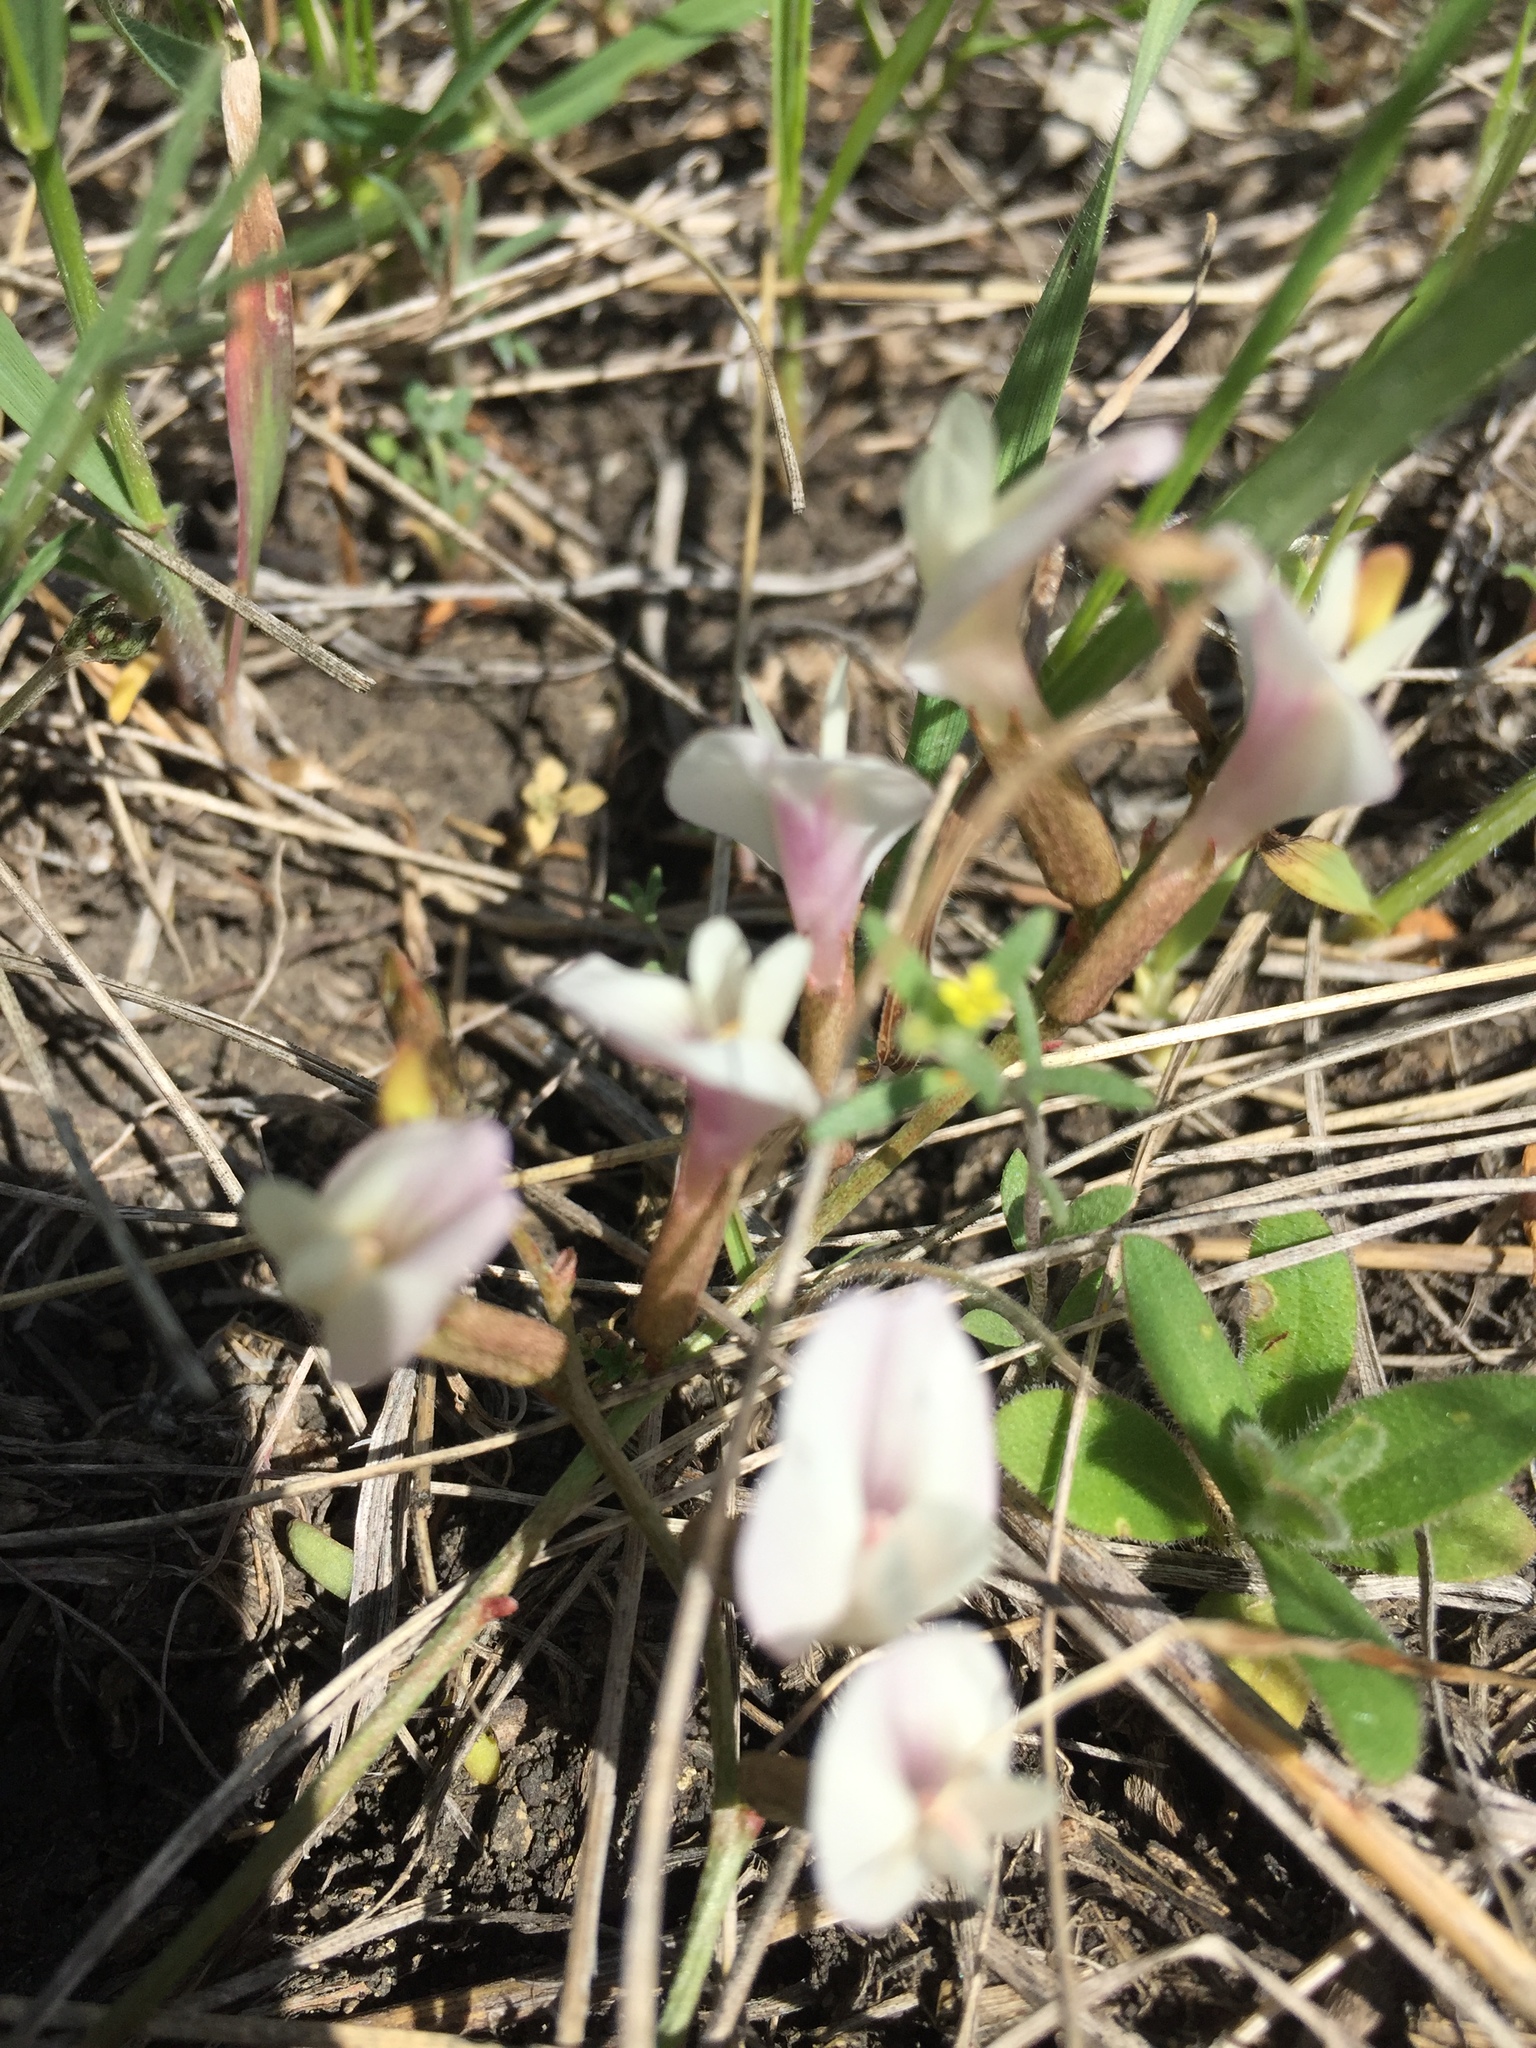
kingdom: Plantae
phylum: Tracheophyta
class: Magnoliopsida
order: Fabales
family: Fabaceae
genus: Astragalus
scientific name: Astragalus ucrainicus
